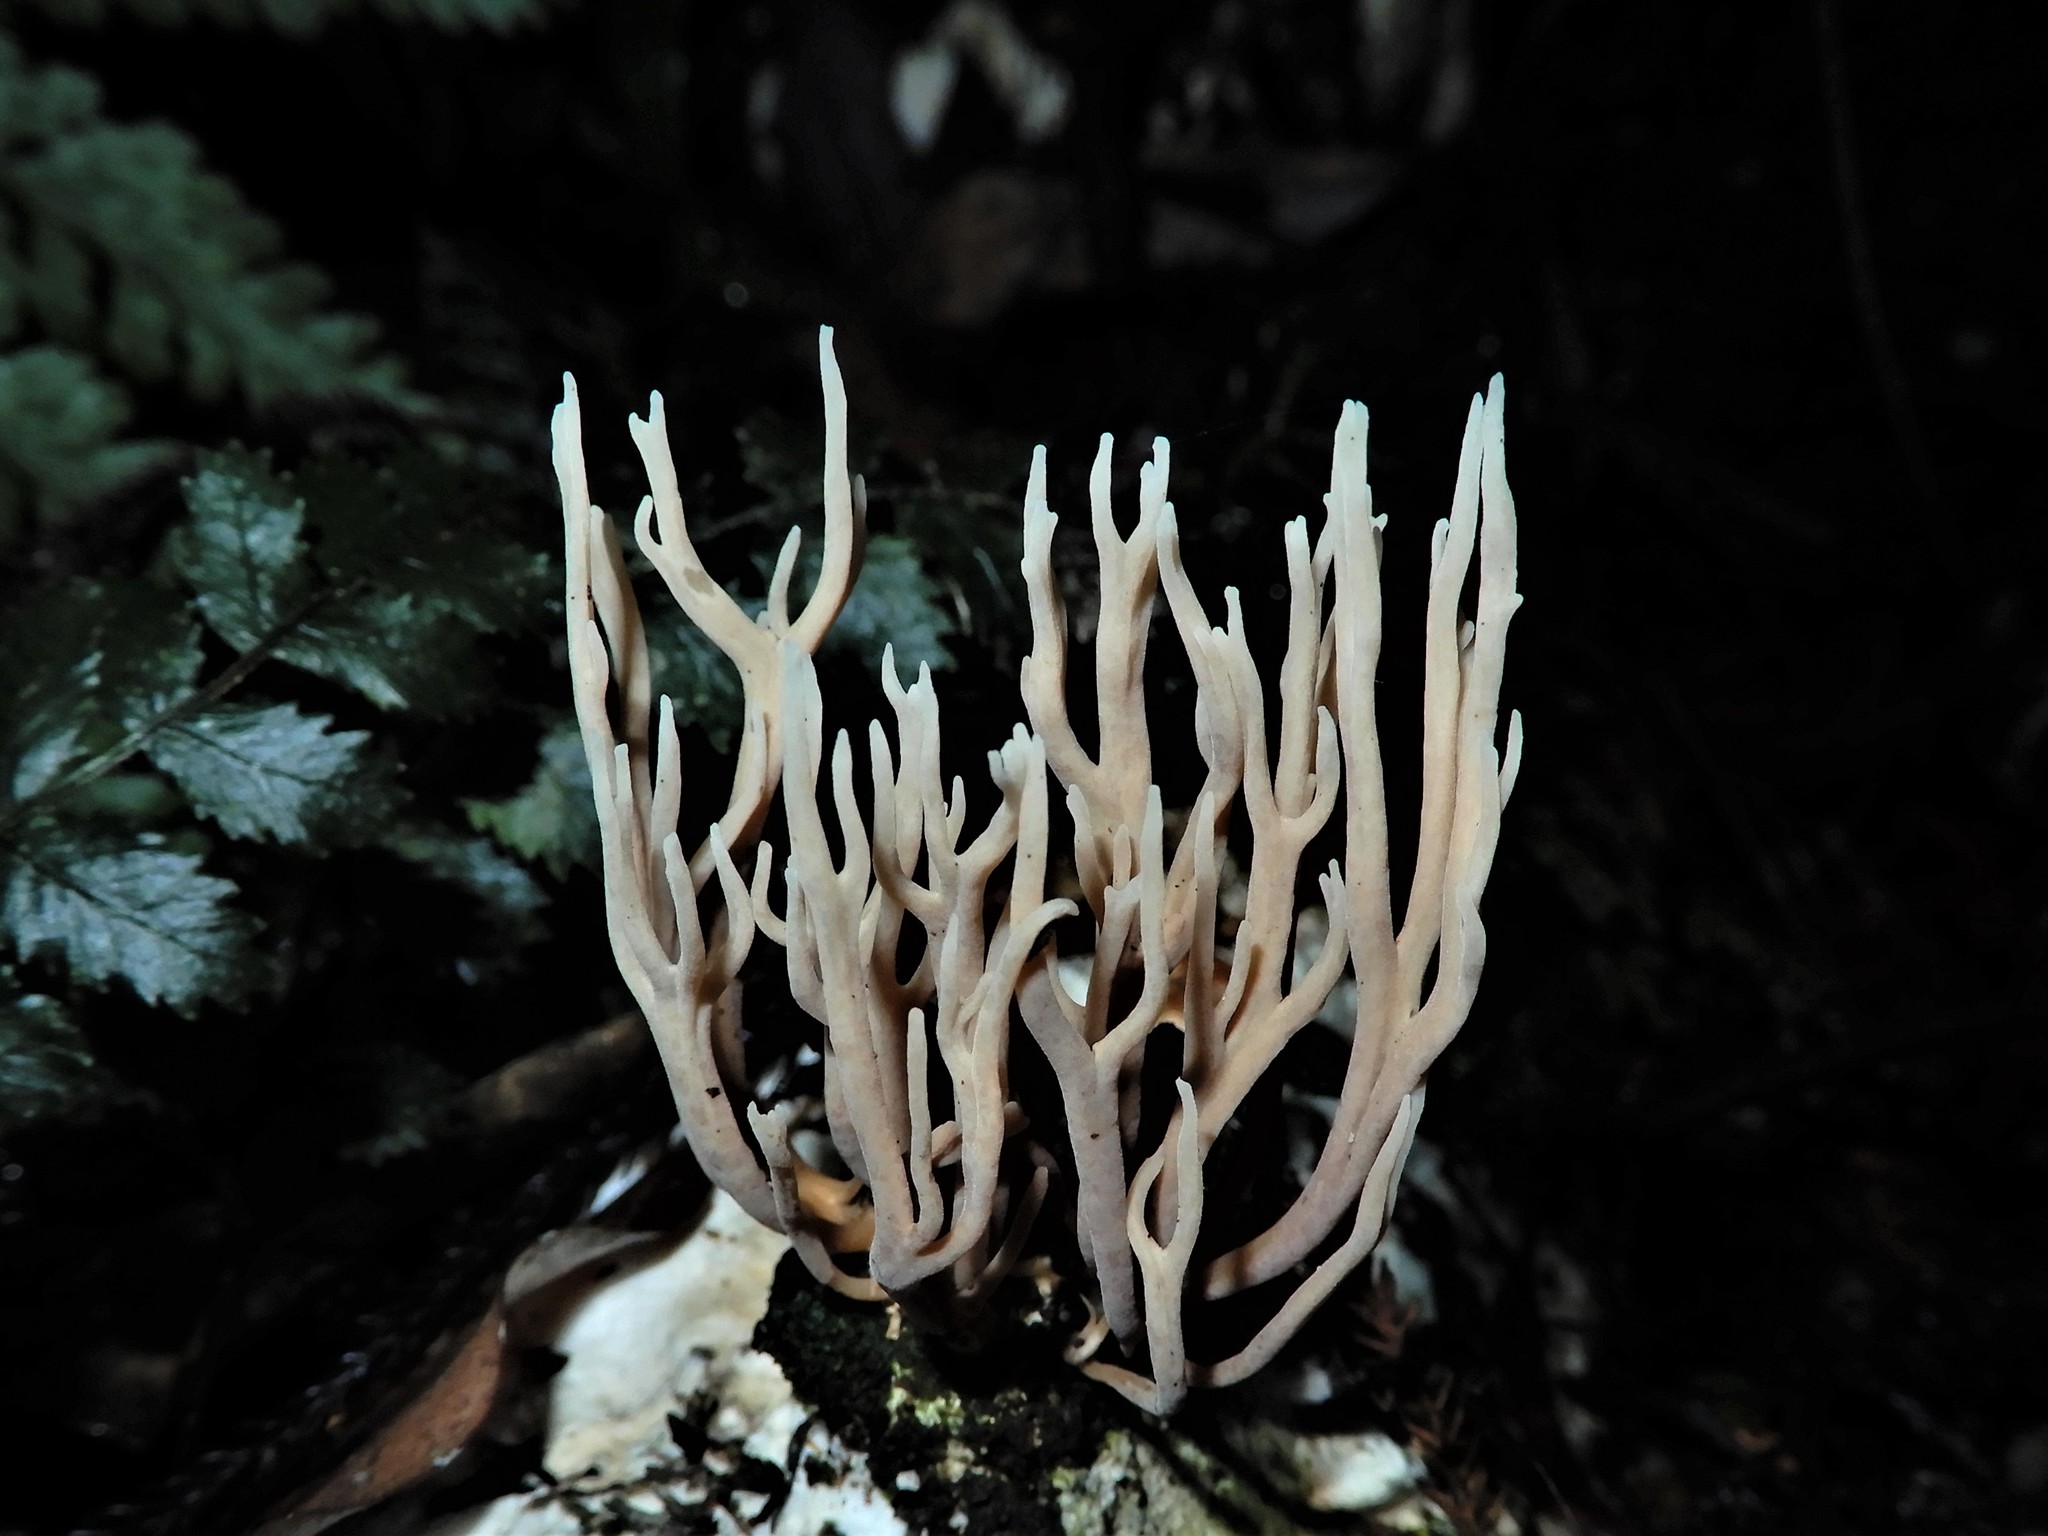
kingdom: Fungi
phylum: Basidiomycota
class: Agaricomycetes
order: Gomphales
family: Lentariaceae
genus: Lentaria
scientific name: Lentaria boletosporioides
